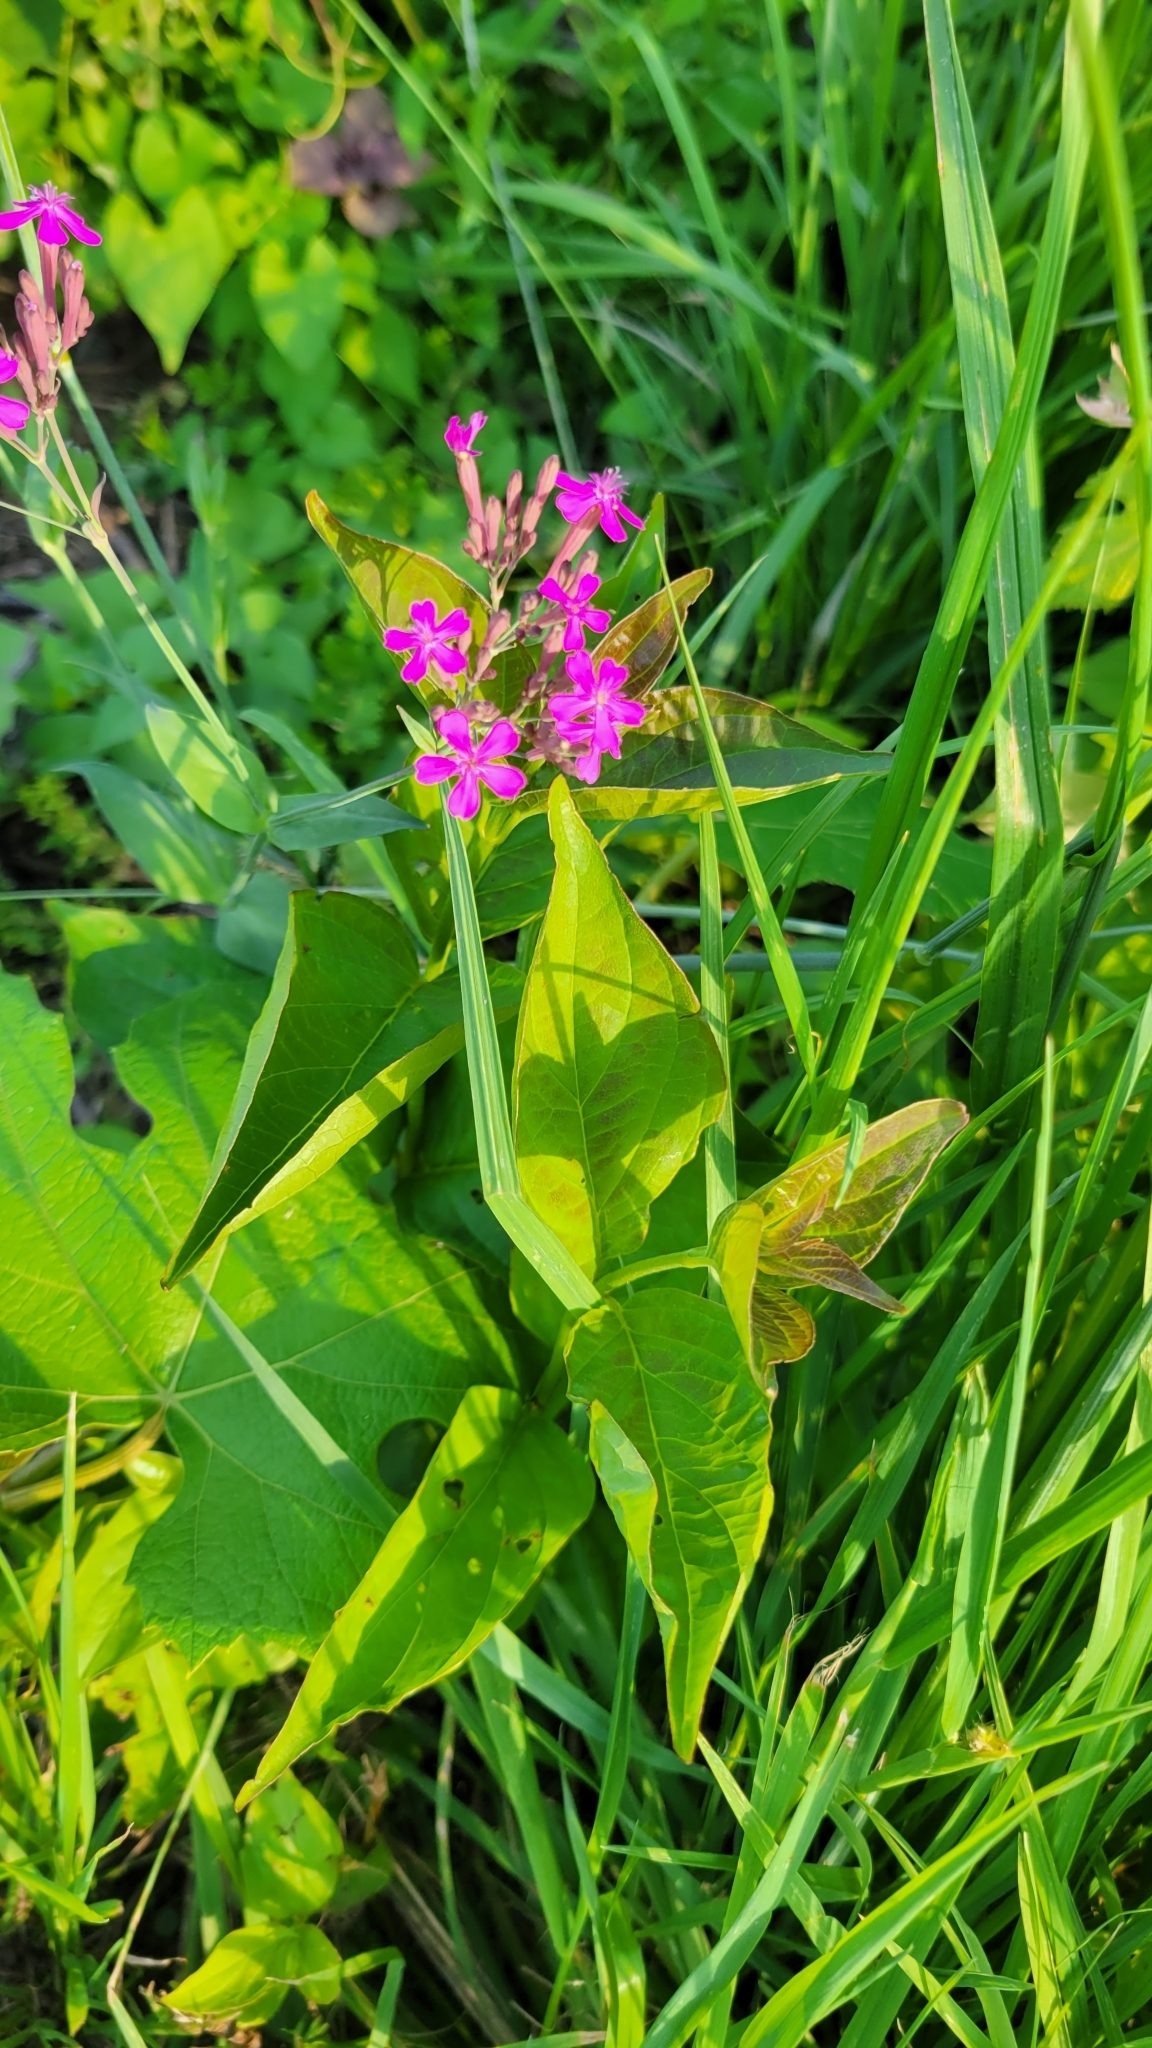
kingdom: Plantae
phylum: Tracheophyta
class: Magnoliopsida
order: Caryophyllales
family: Caryophyllaceae
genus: Atocion
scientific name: Atocion armeria
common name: Sweet william catchfly
